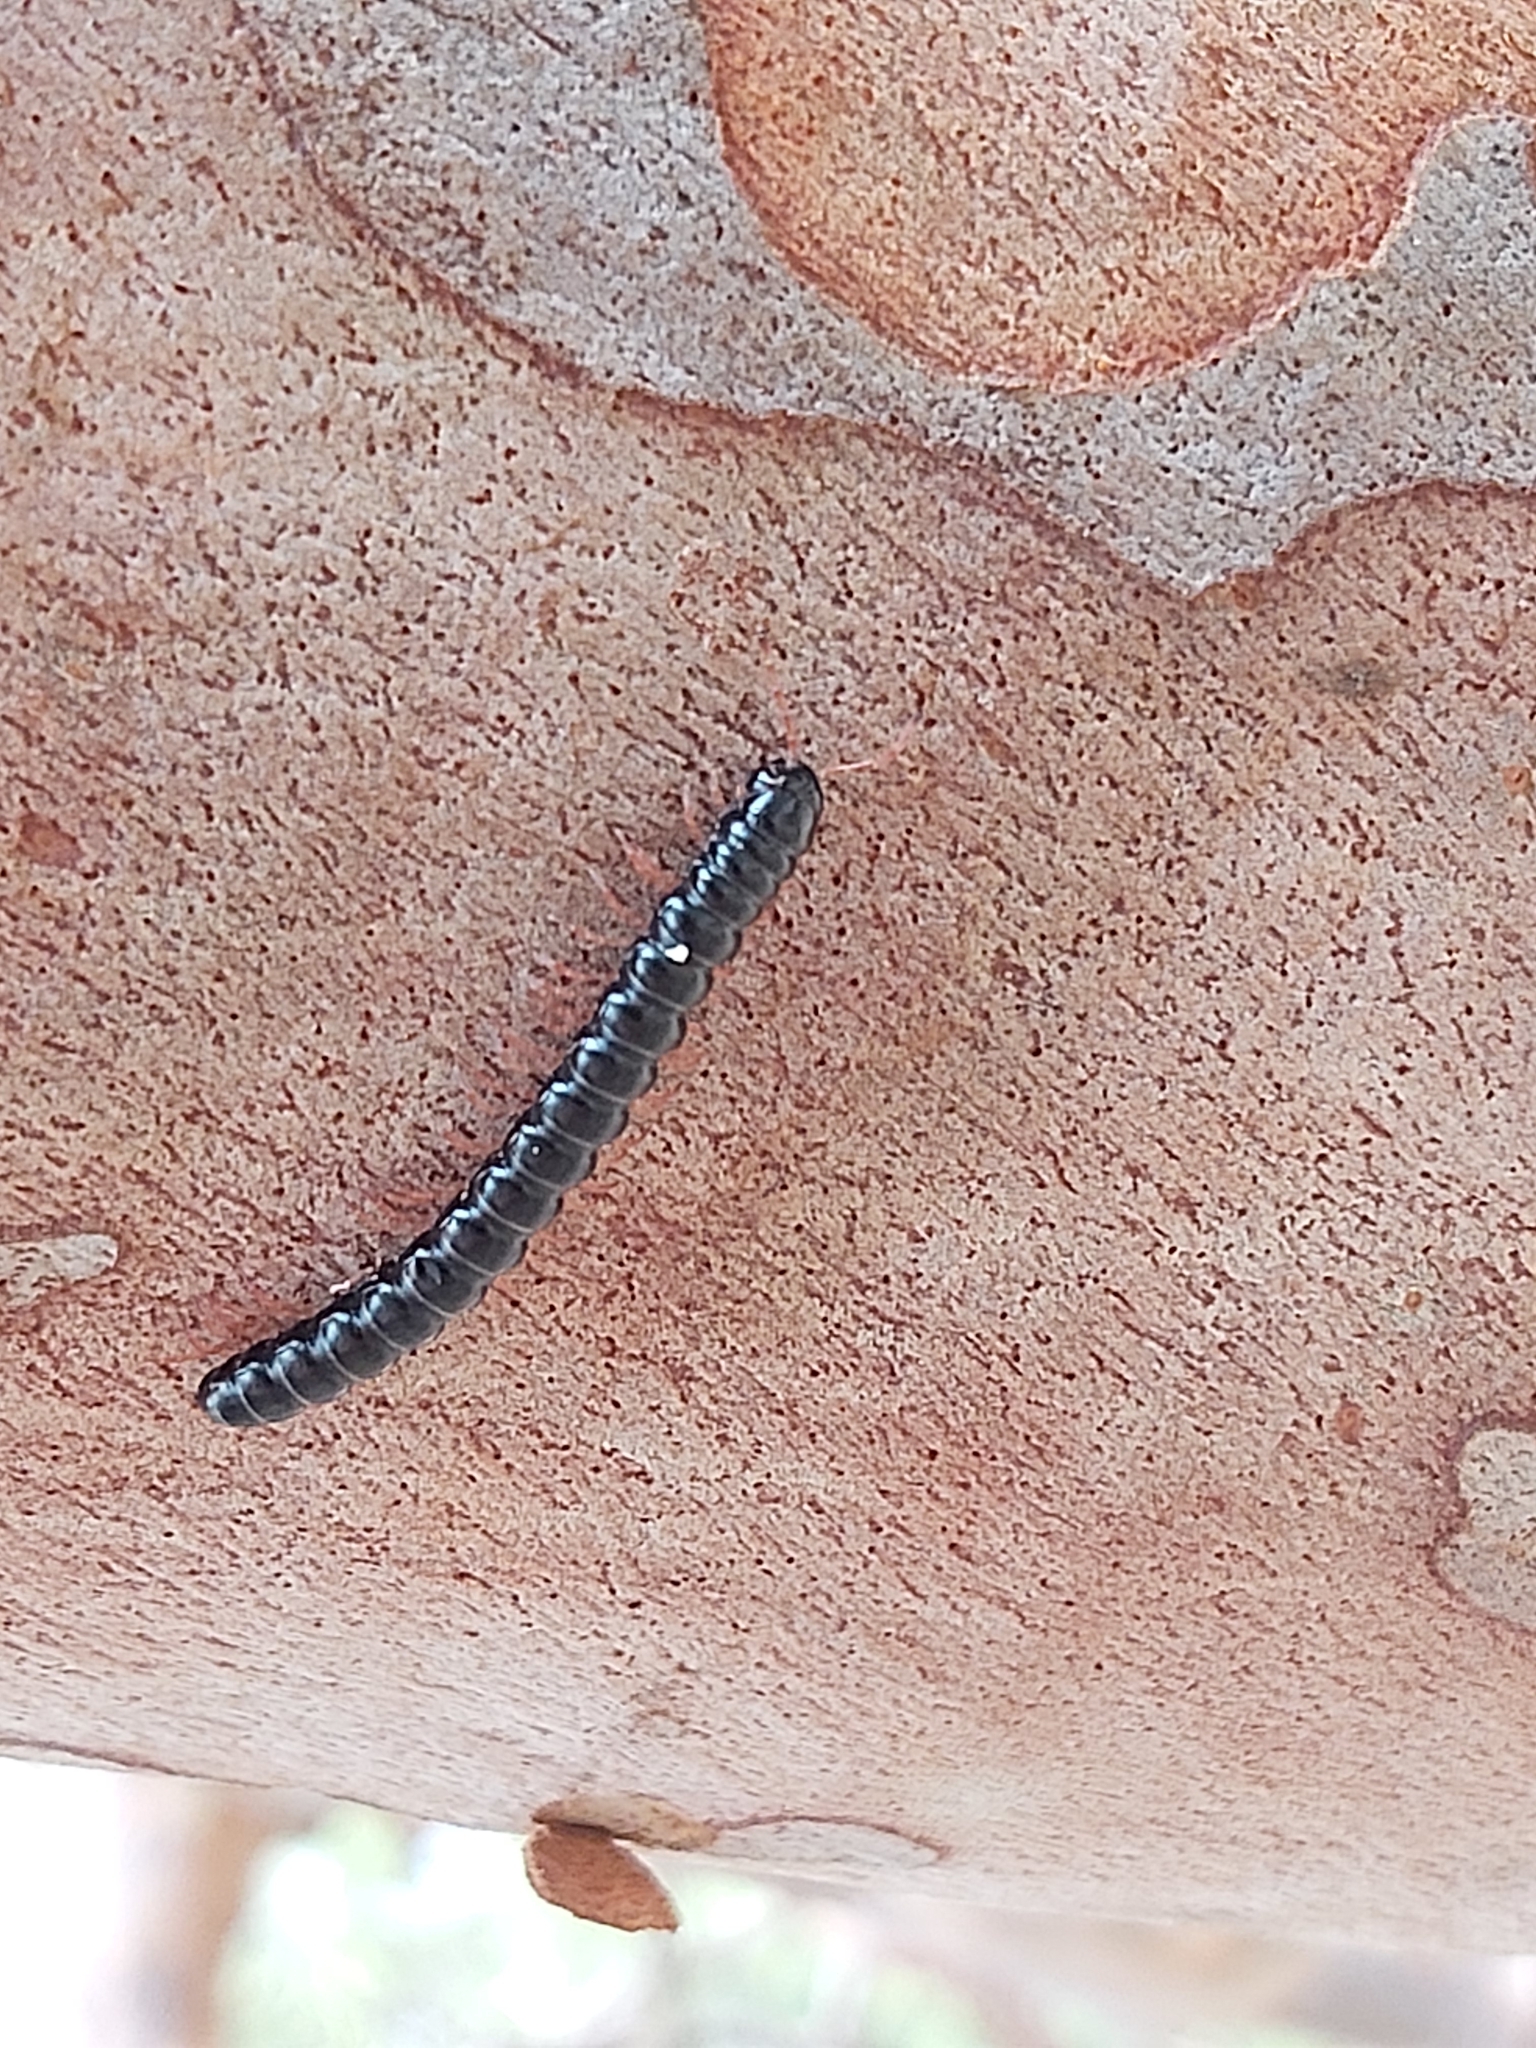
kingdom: Animalia
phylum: Arthropoda
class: Diplopoda
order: Polydesmida
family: Paradoxosomatidae
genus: Heterocladosoma
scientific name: Heterocladosoma
